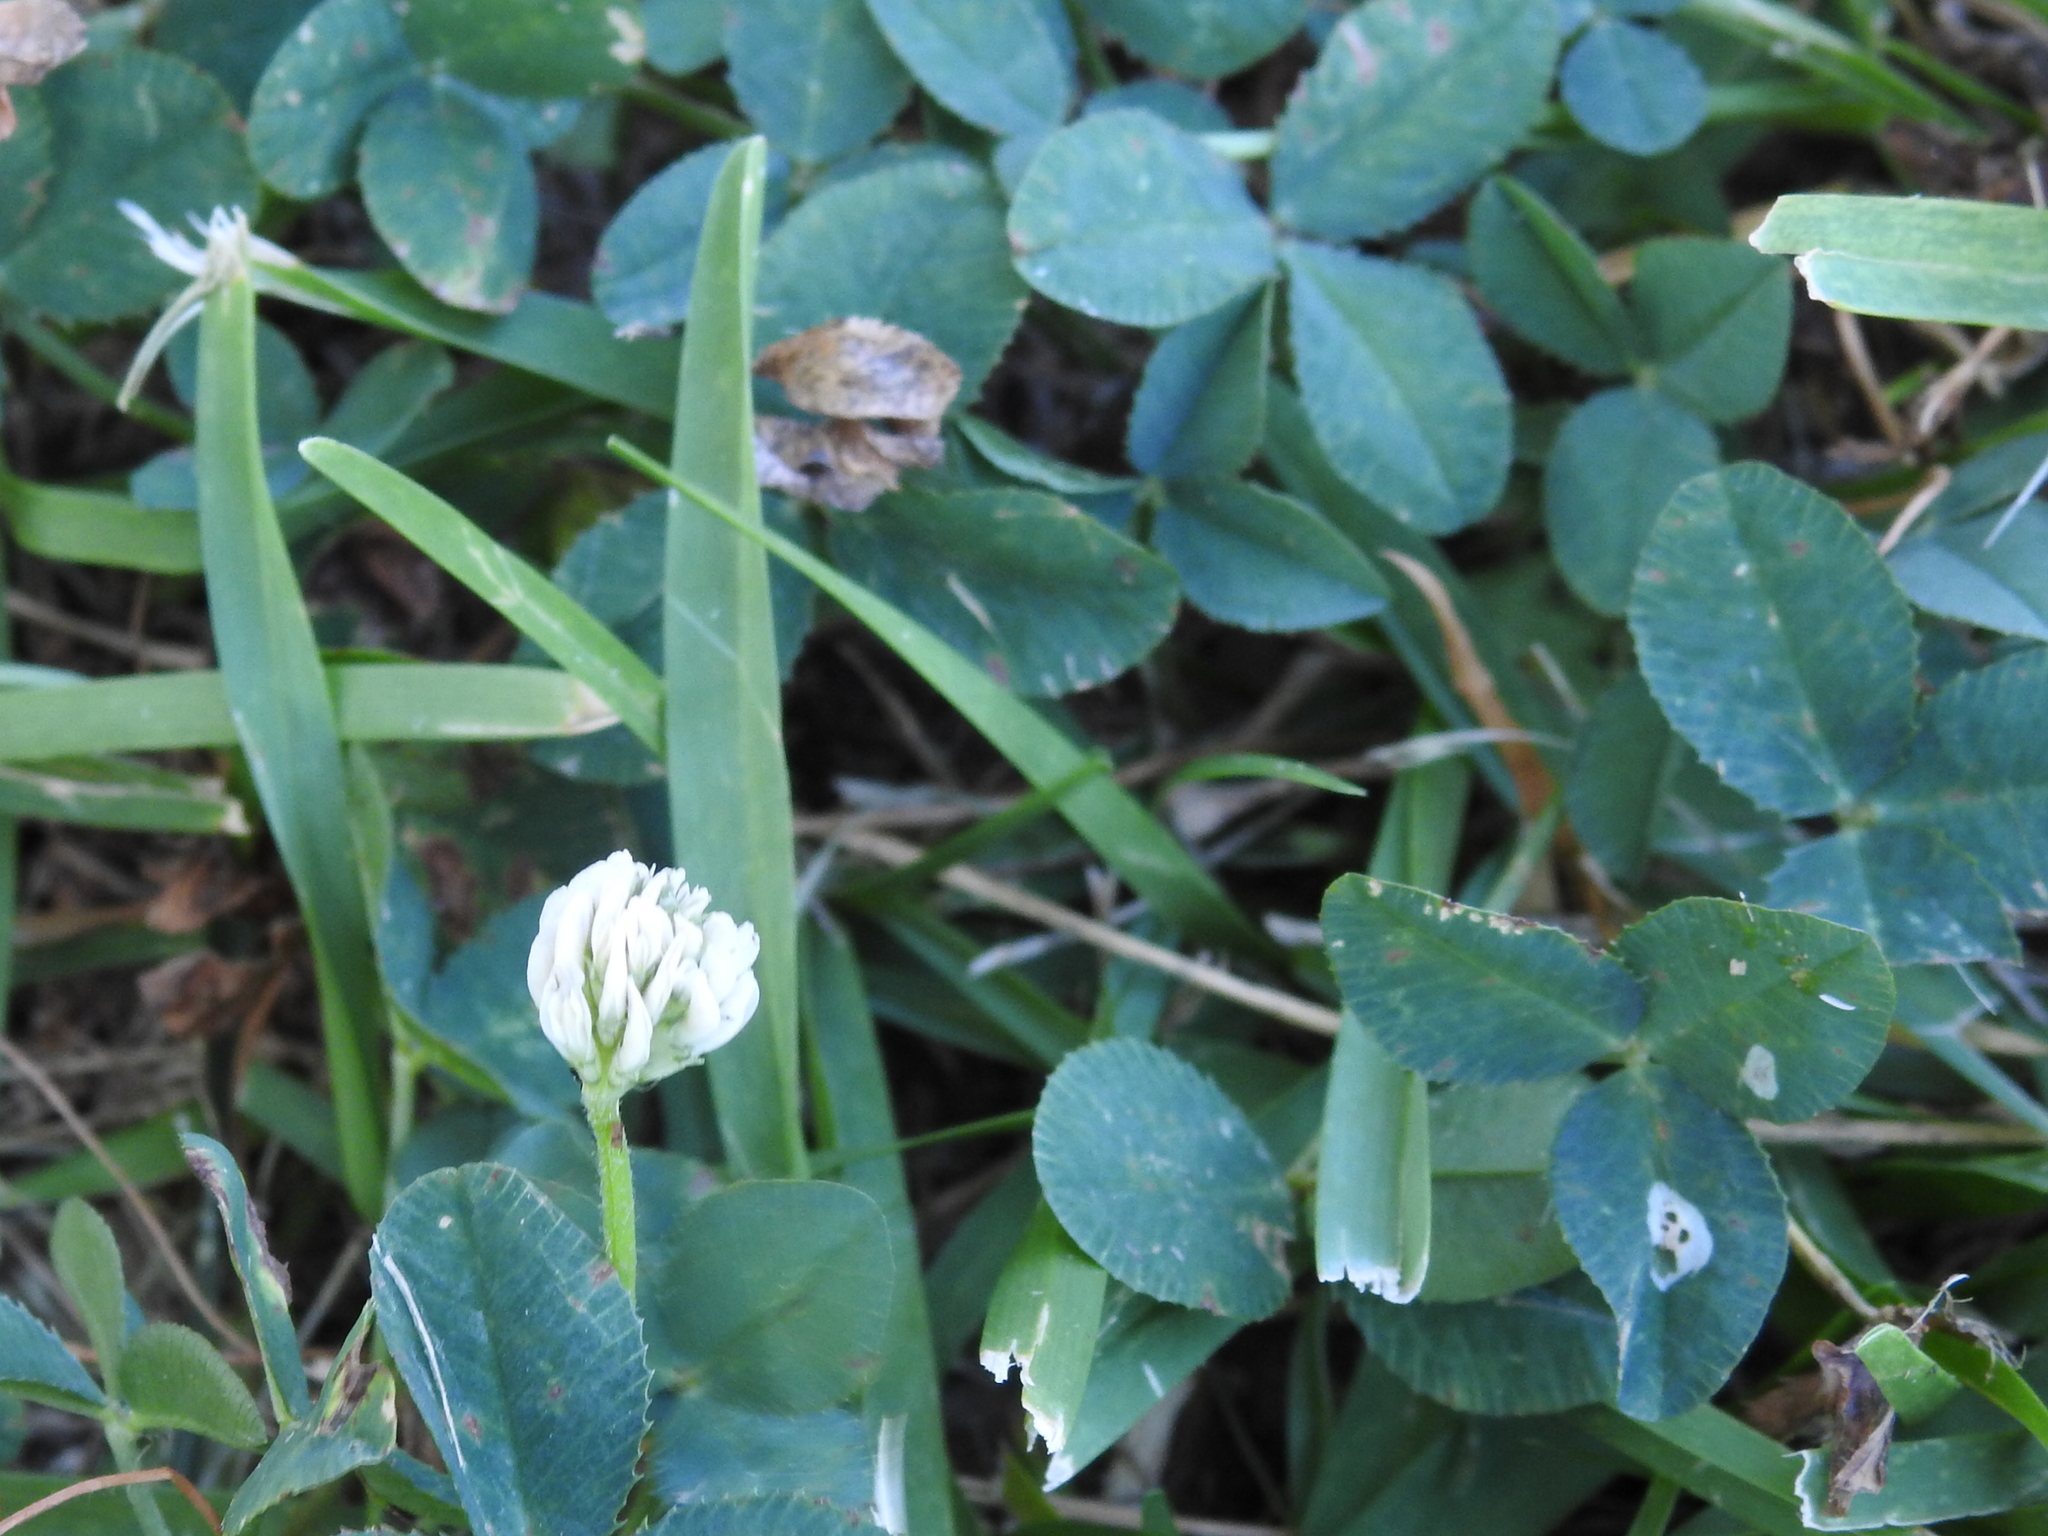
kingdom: Plantae
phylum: Tracheophyta
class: Magnoliopsida
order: Fabales
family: Fabaceae
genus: Trifolium
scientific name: Trifolium repens
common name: White clover
